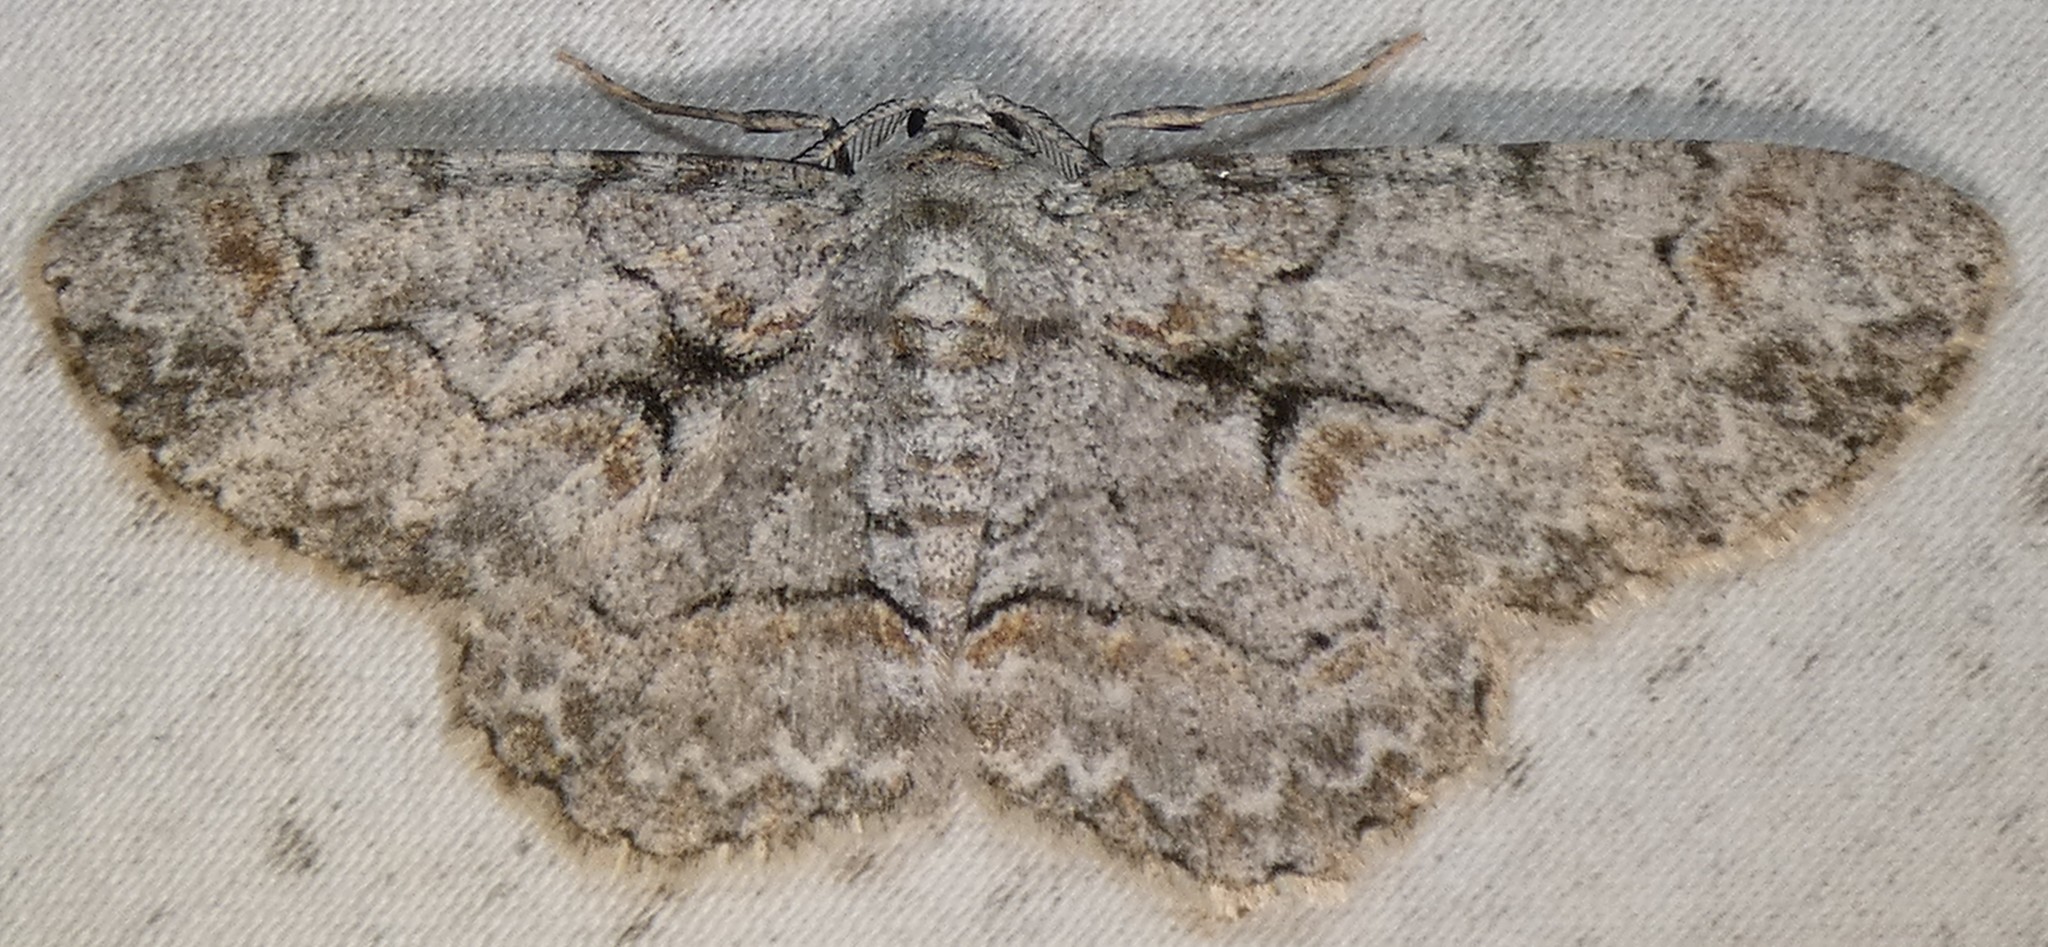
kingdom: Animalia
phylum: Arthropoda
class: Insecta
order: Lepidoptera
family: Geometridae
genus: Iridopsis
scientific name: Iridopsis defectaria
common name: Brown-shaded gray
